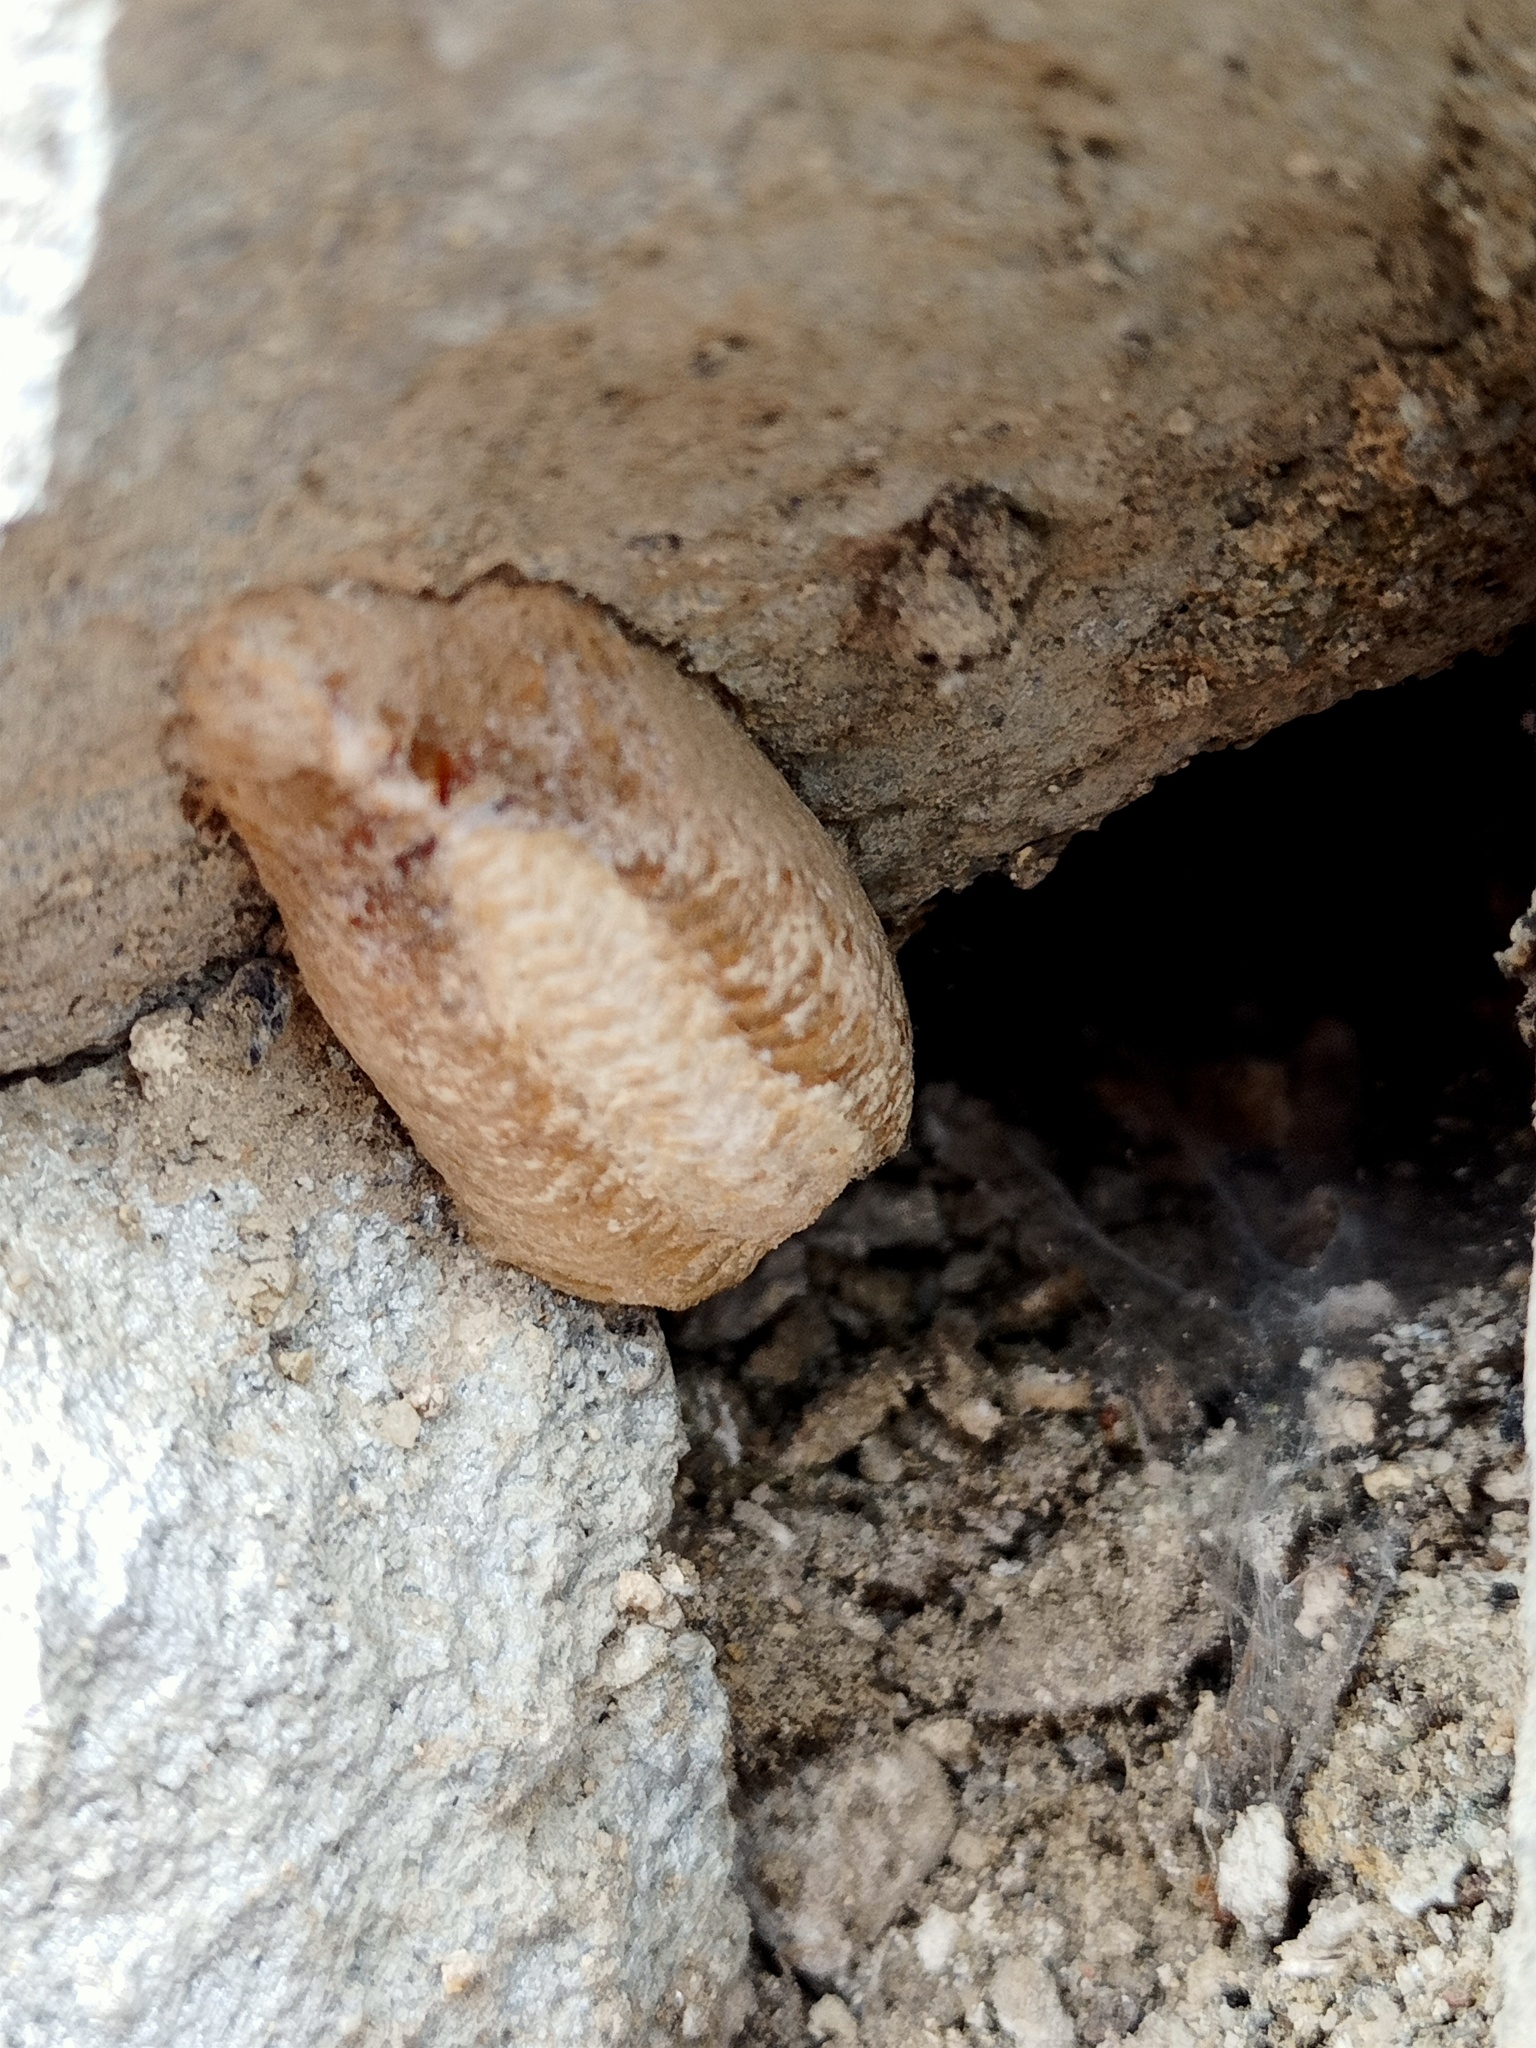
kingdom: Animalia
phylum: Arthropoda
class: Insecta
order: Mantodea
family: Mantidae
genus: Mantis
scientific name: Mantis religiosa
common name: Praying mantis
